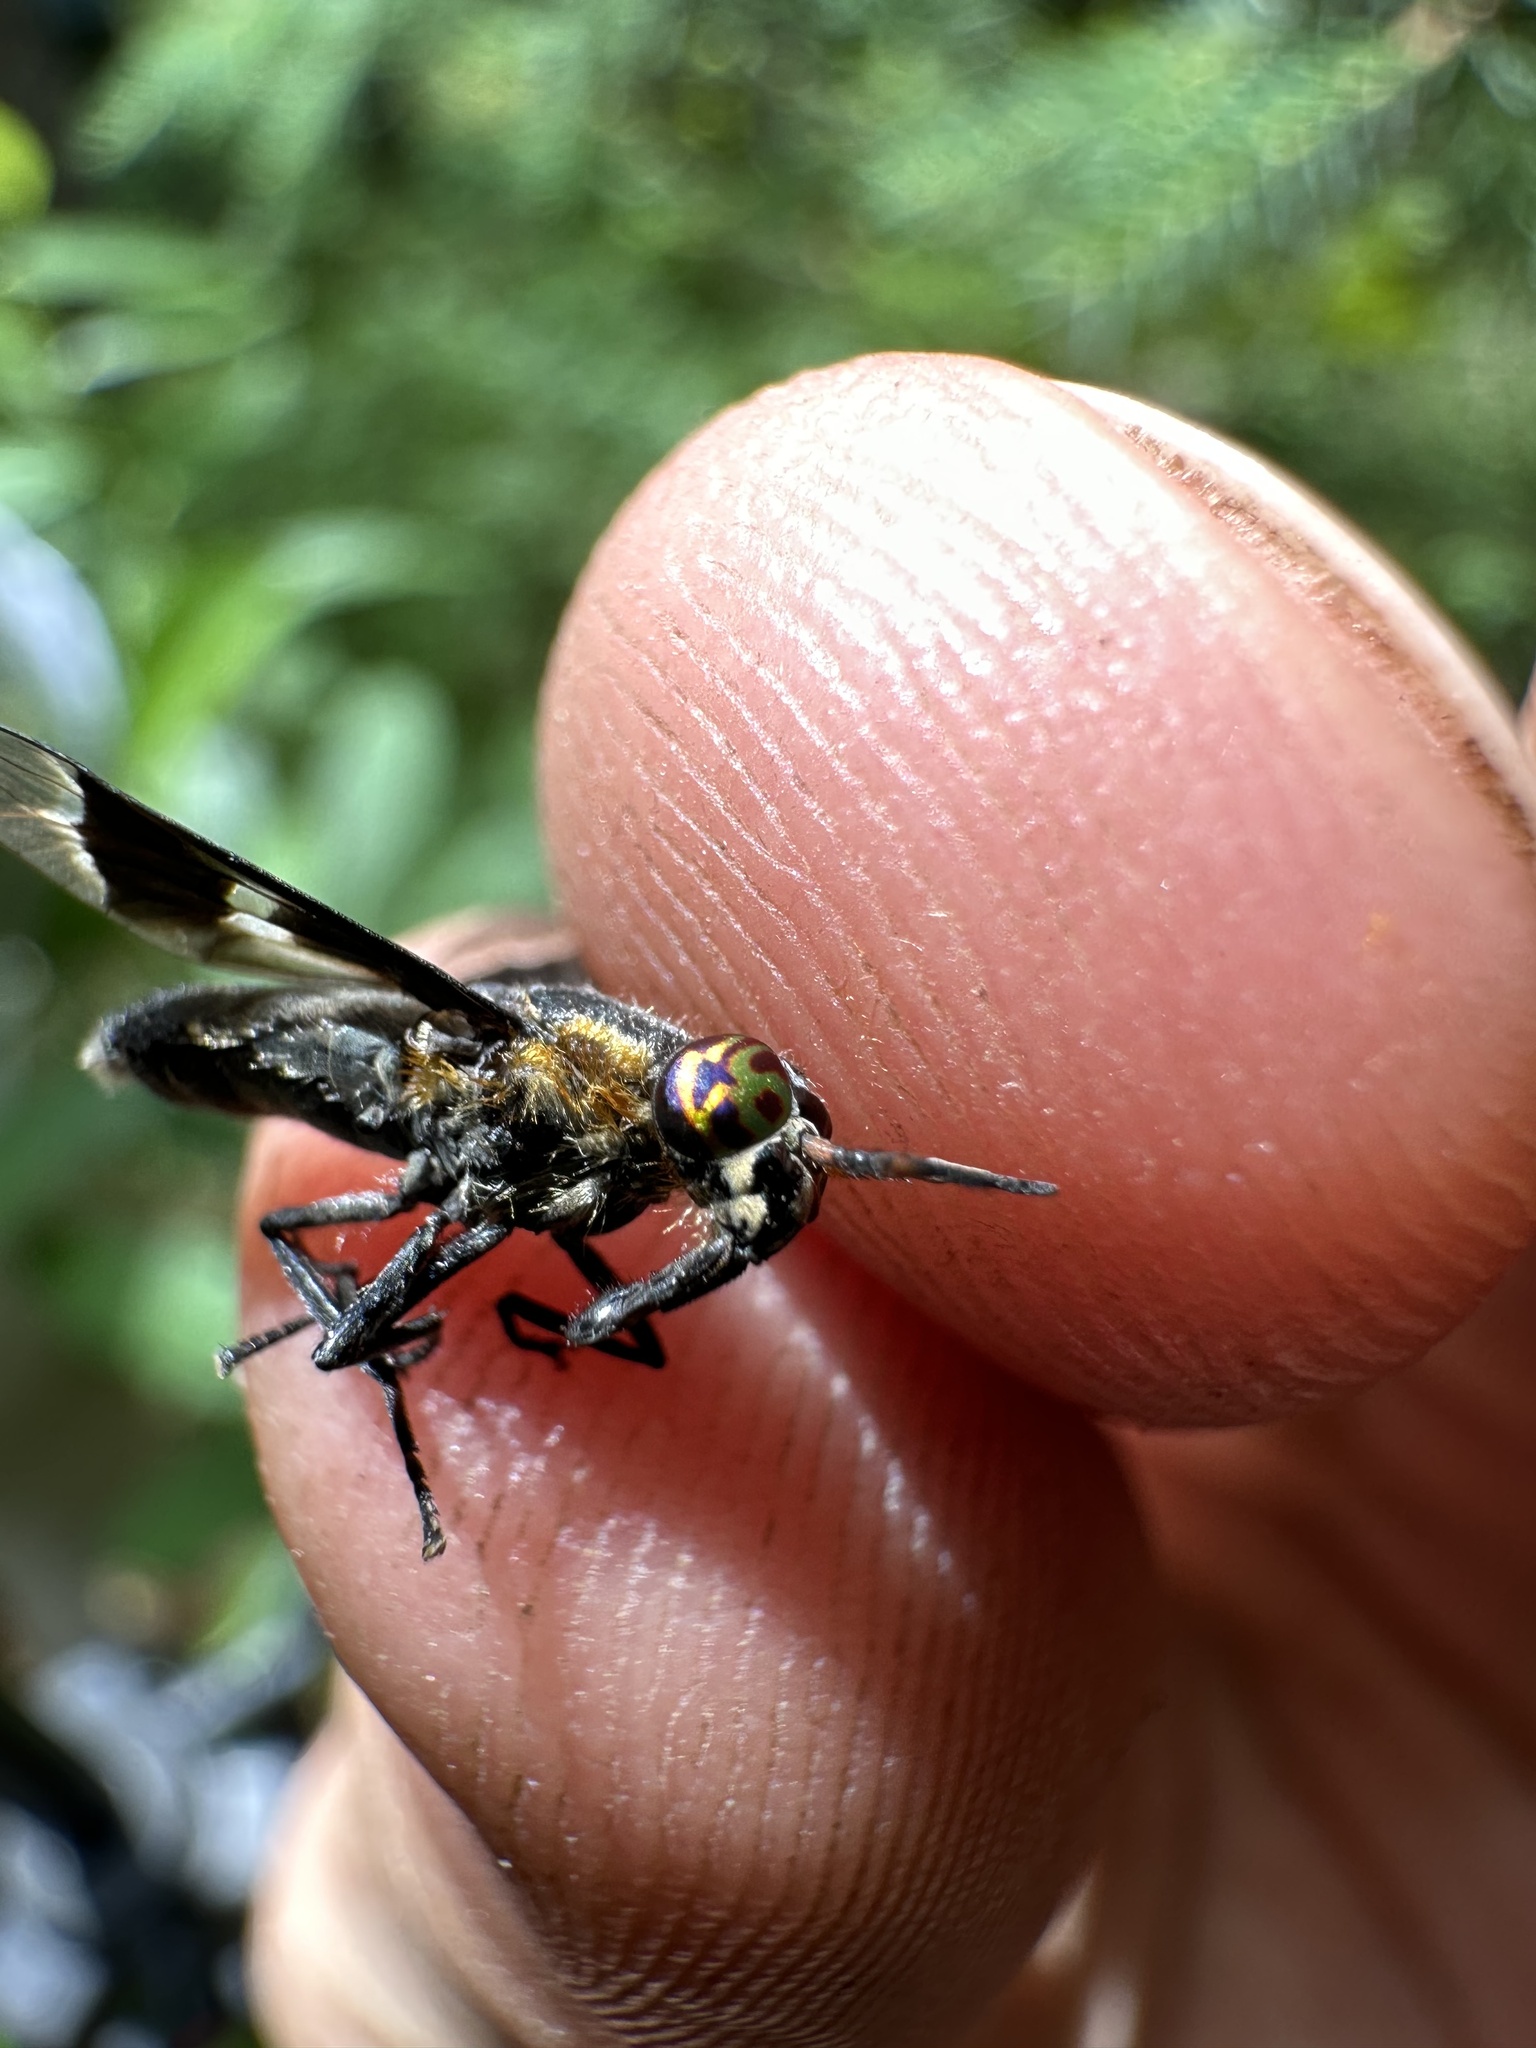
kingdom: Animalia
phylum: Arthropoda
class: Insecta
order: Diptera
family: Tabanidae
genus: Chrysops
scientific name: Chrysops cincticornis
